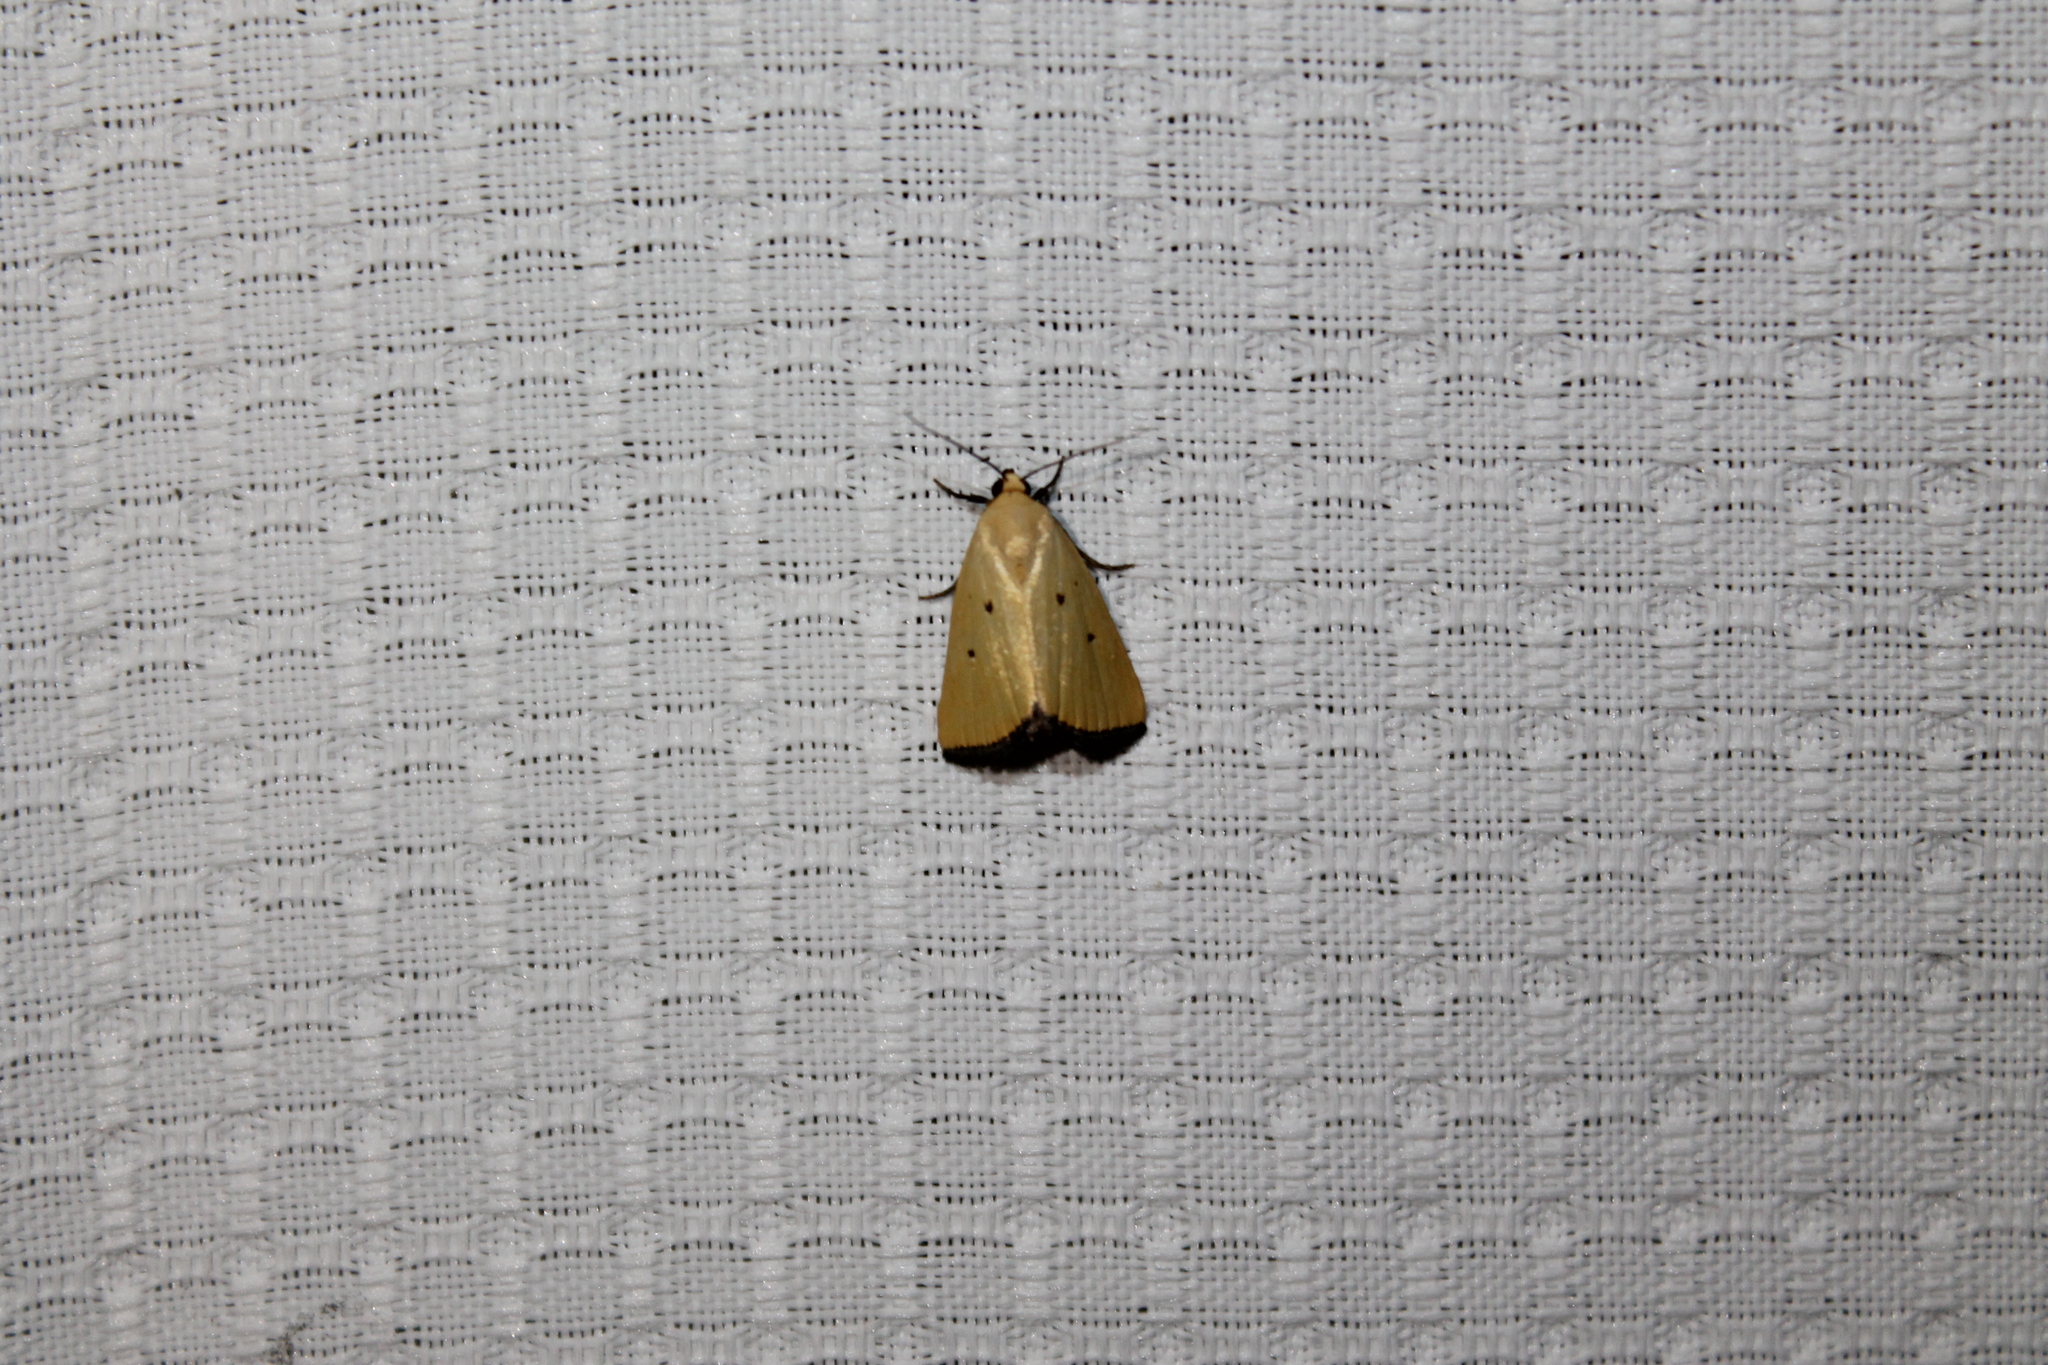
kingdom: Animalia
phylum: Arthropoda
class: Insecta
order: Lepidoptera
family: Noctuidae
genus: Marimatha
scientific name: Marimatha nigrofimbria
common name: Black-bordered lemon moth
